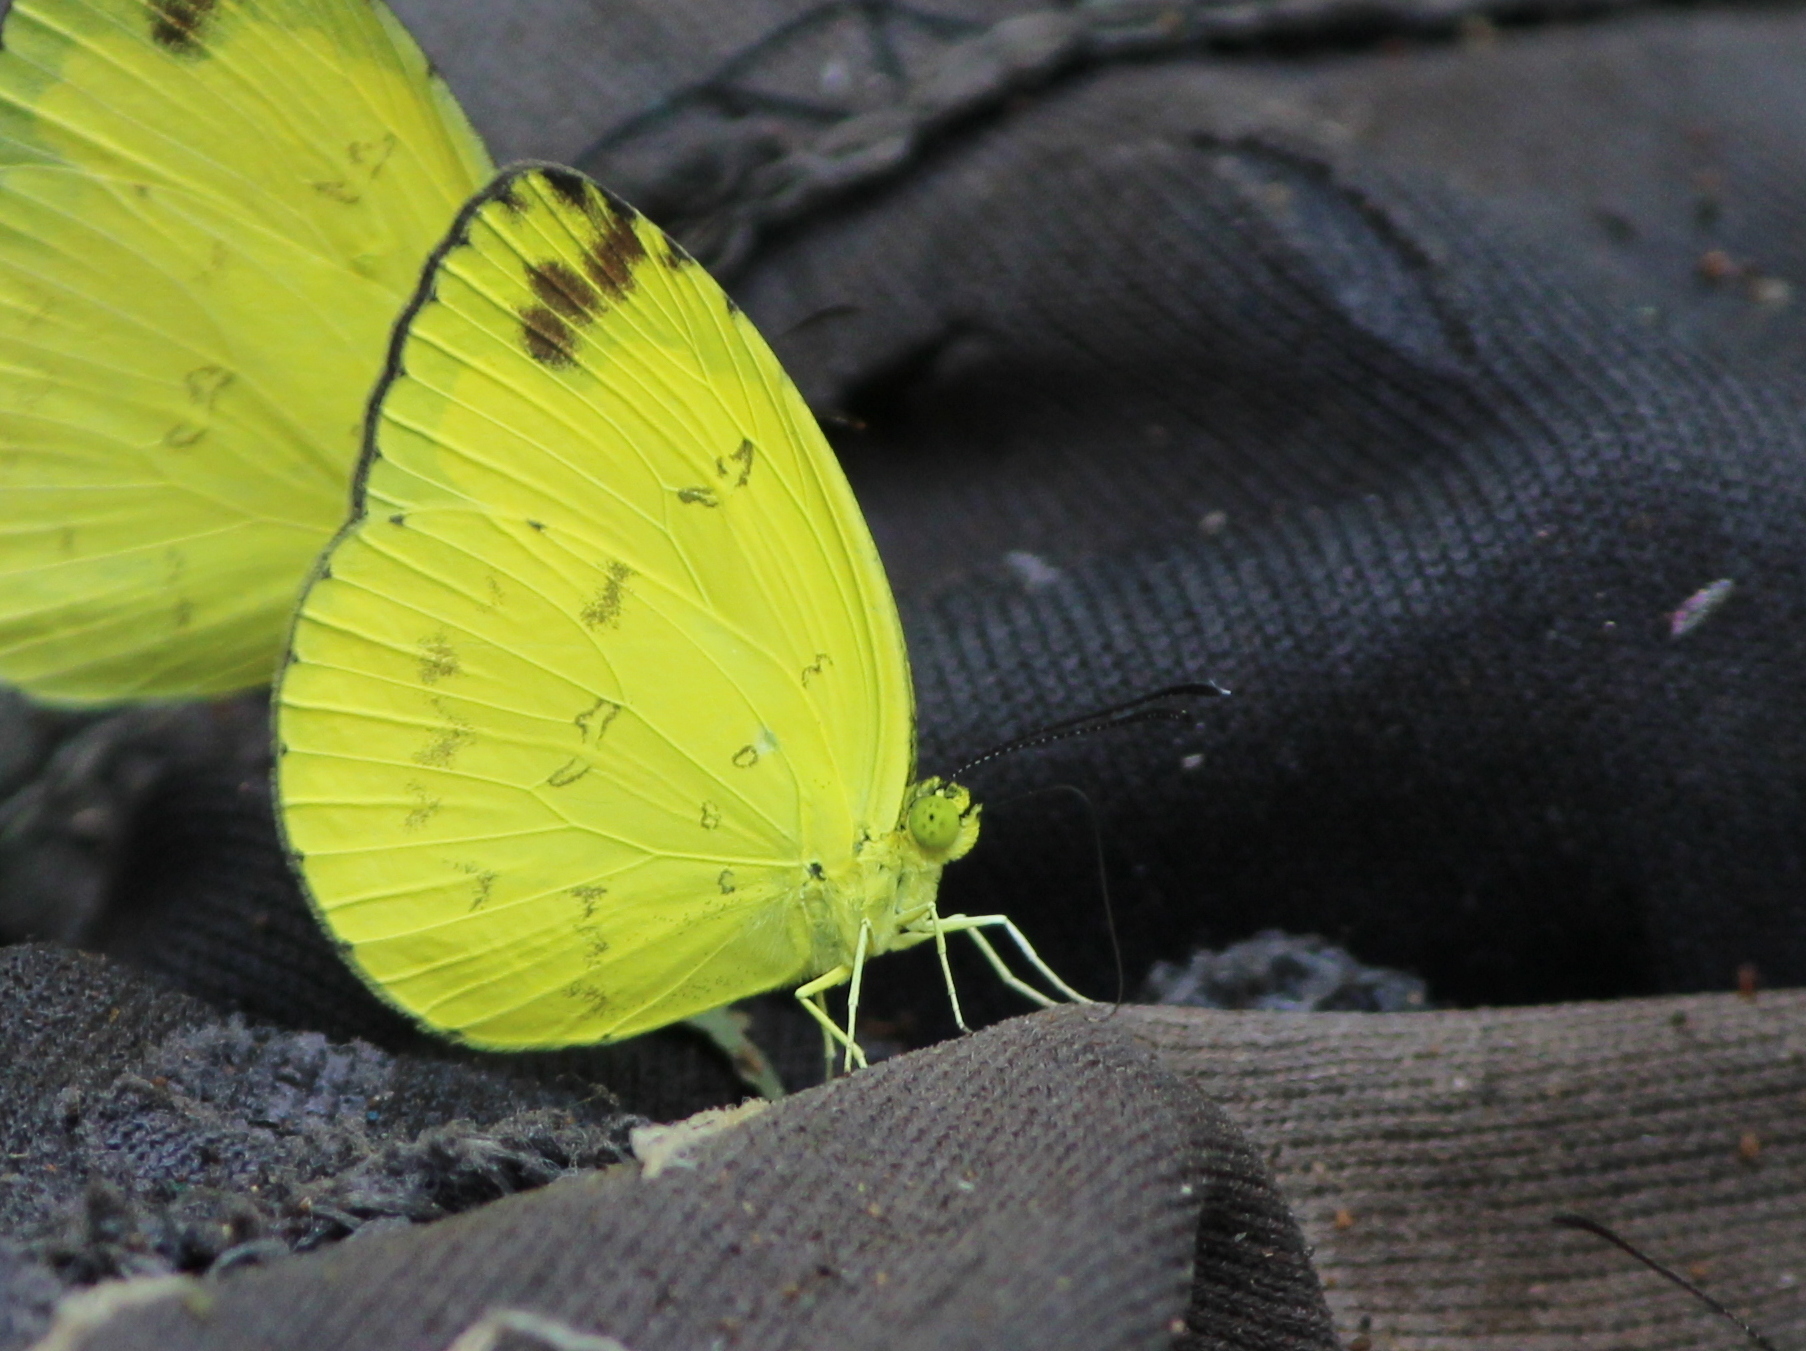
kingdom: Animalia
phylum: Arthropoda
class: Insecta
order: Lepidoptera
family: Pieridae
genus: Eurema
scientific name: Eurema andersoni
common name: One-spot yellow grass
